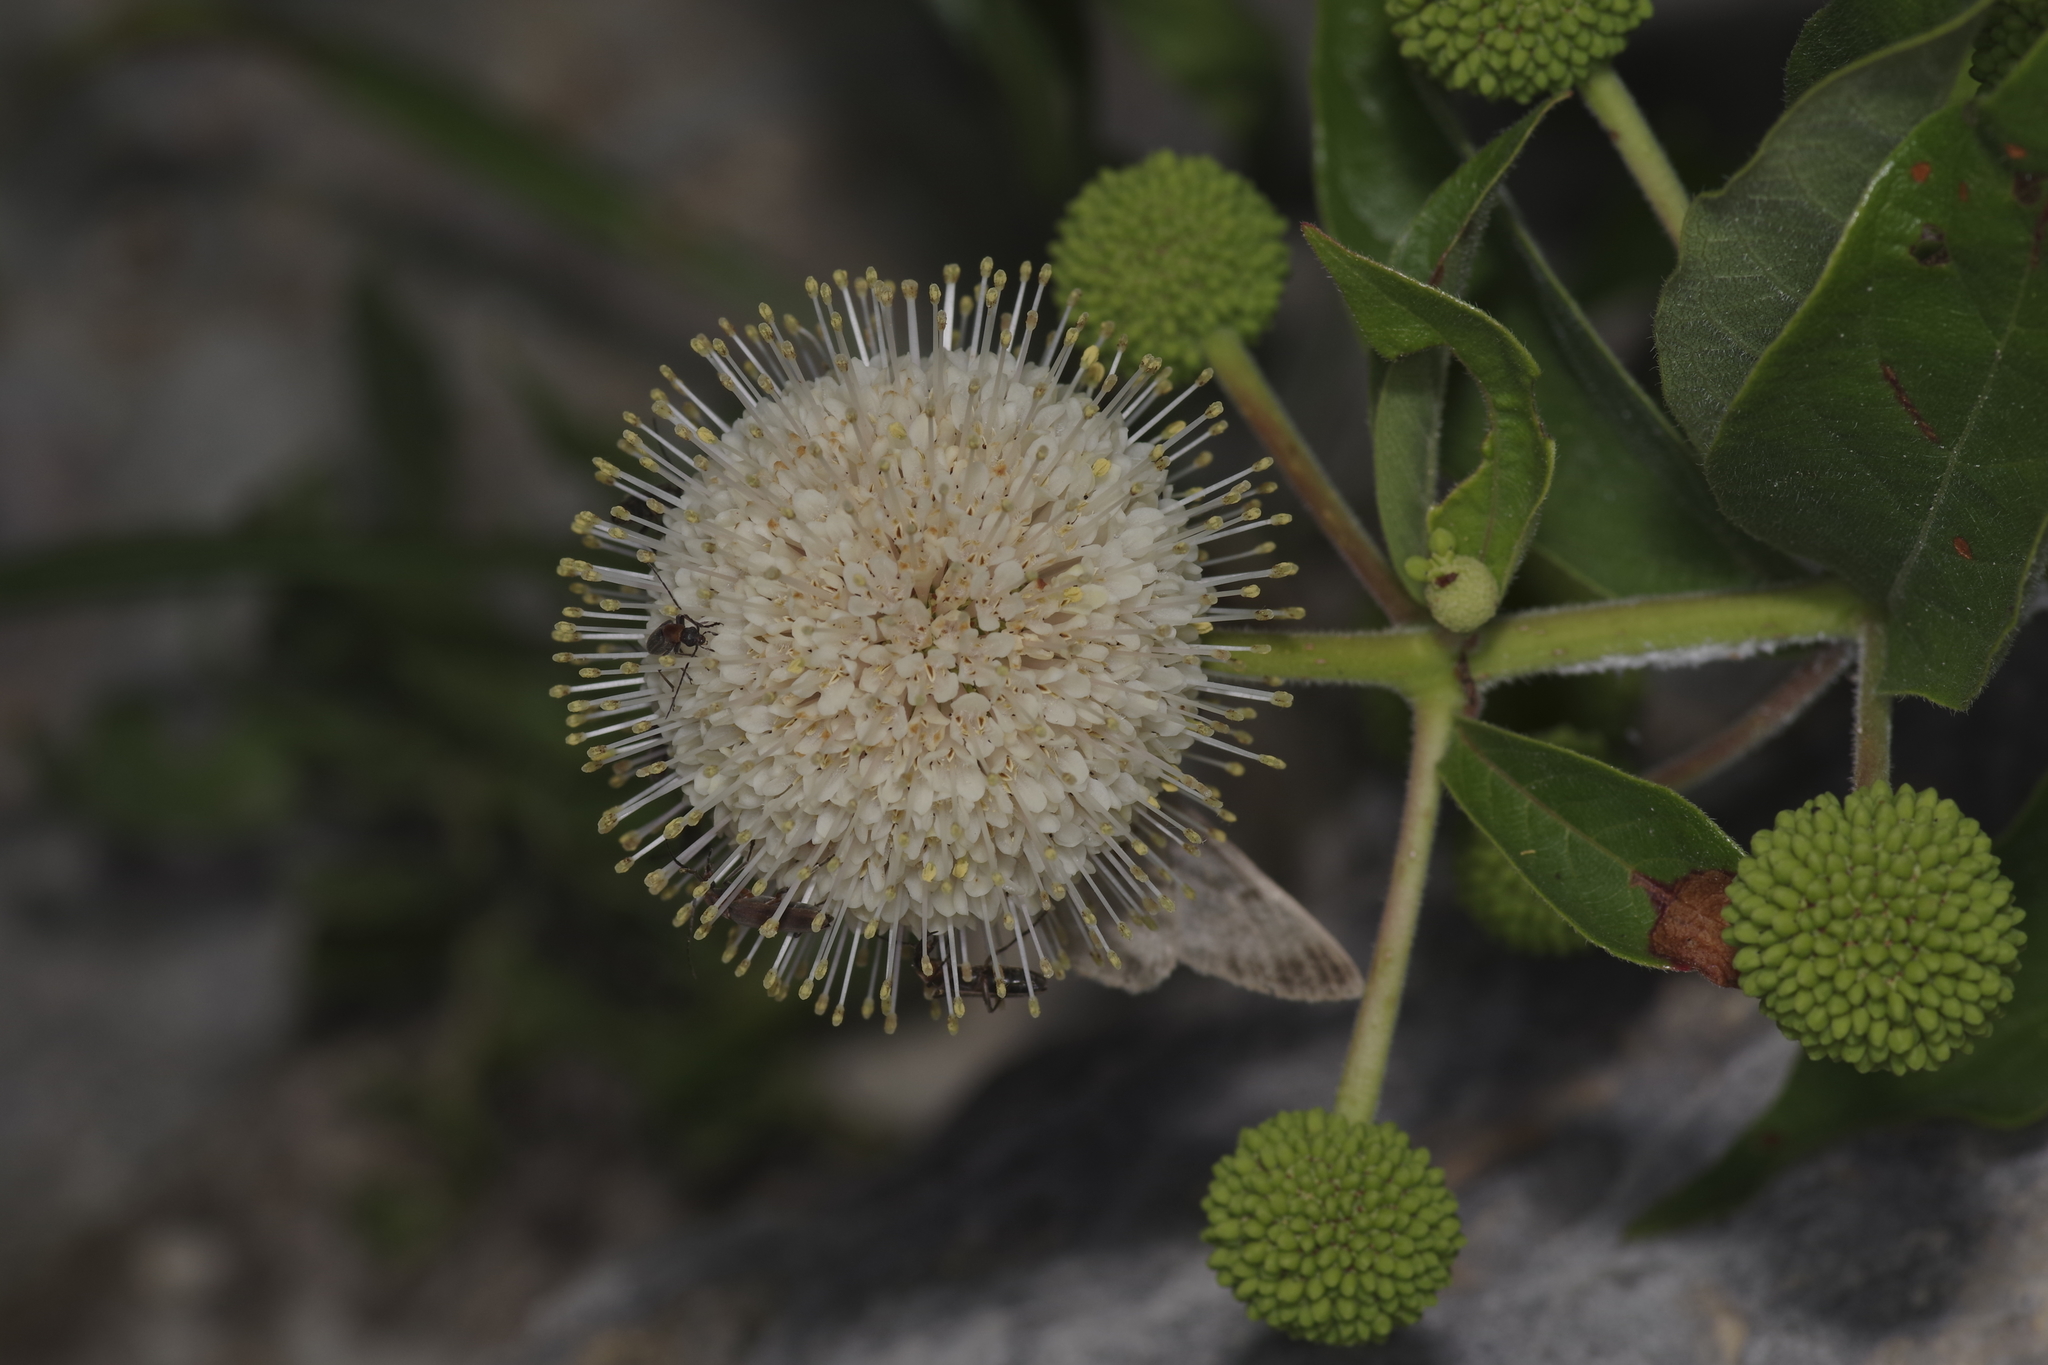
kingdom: Plantae
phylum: Tracheophyta
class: Magnoliopsida
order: Gentianales
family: Rubiaceae
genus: Cephalanthus
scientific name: Cephalanthus occidentalis
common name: Button-willow
